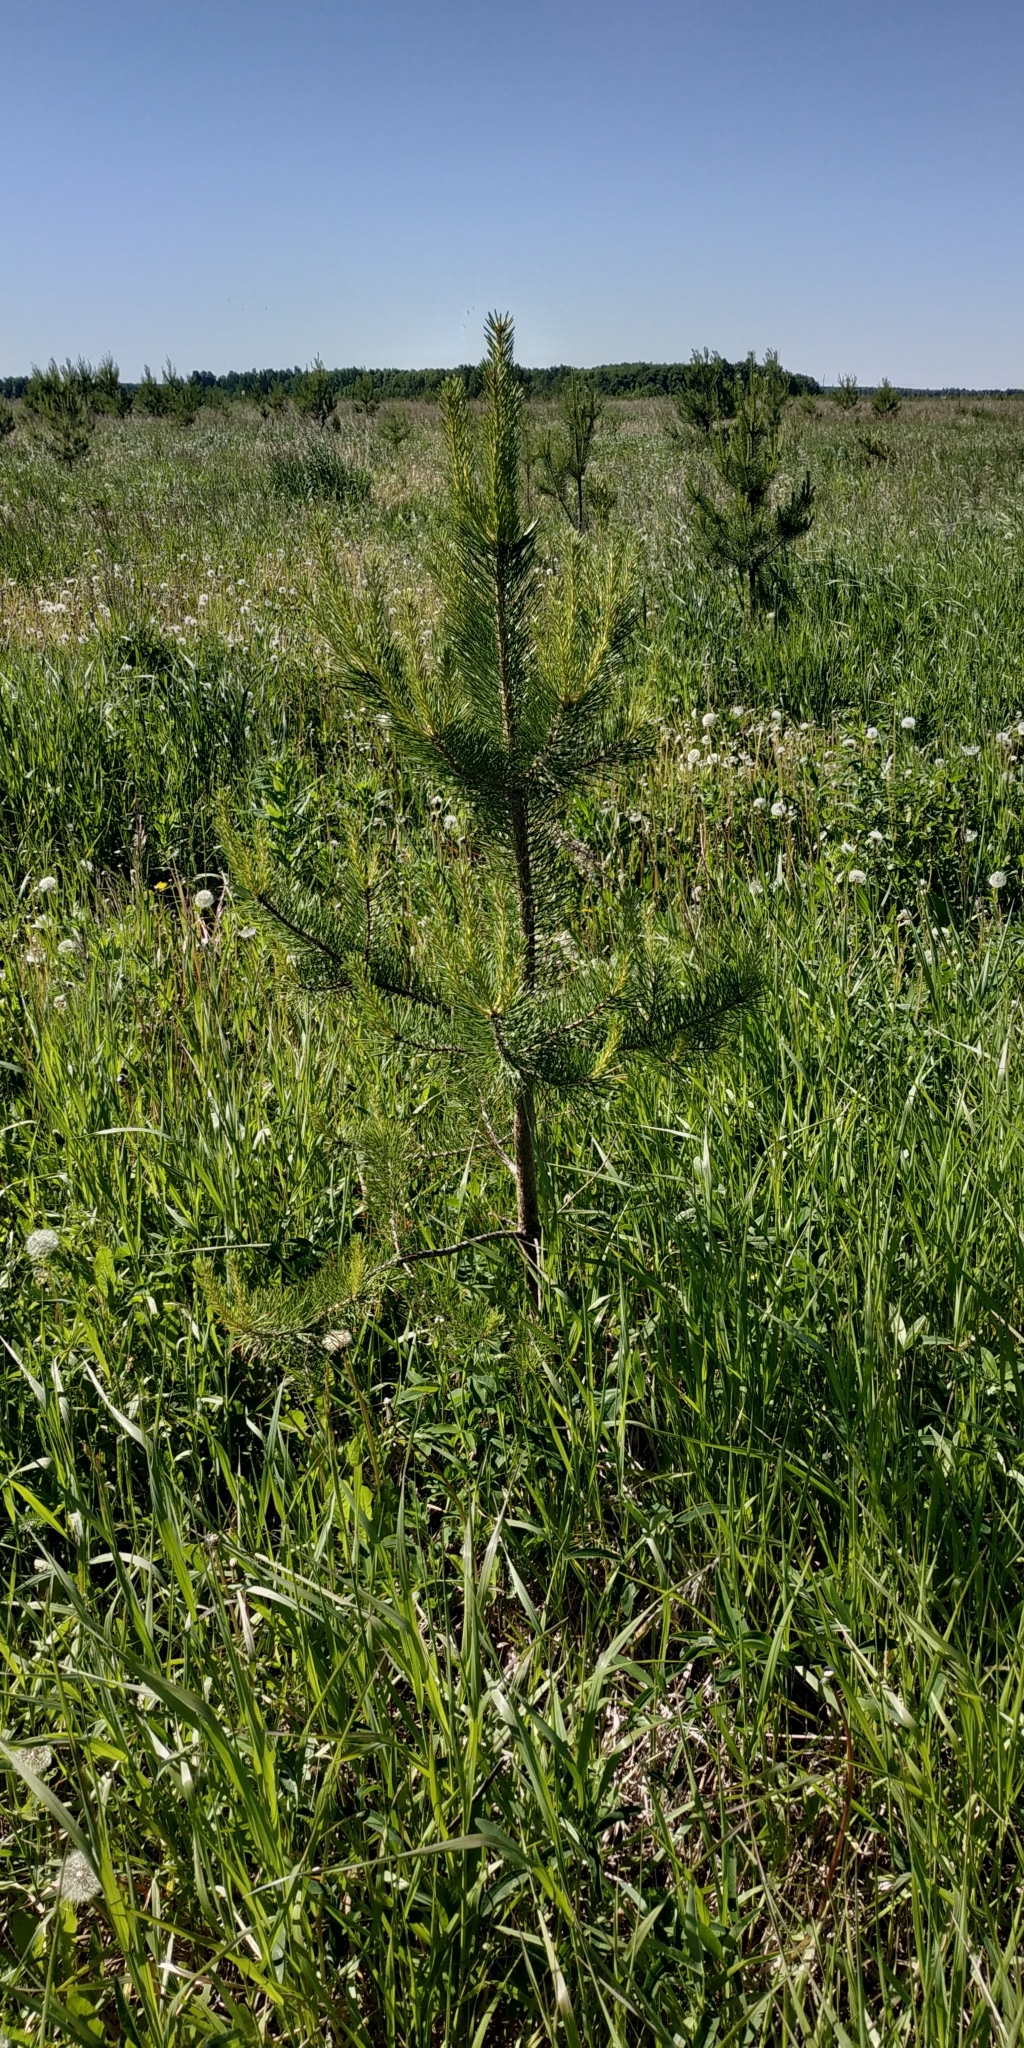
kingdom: Plantae
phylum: Tracheophyta
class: Pinopsida
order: Pinales
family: Pinaceae
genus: Pinus
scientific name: Pinus sylvestris
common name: Scots pine
